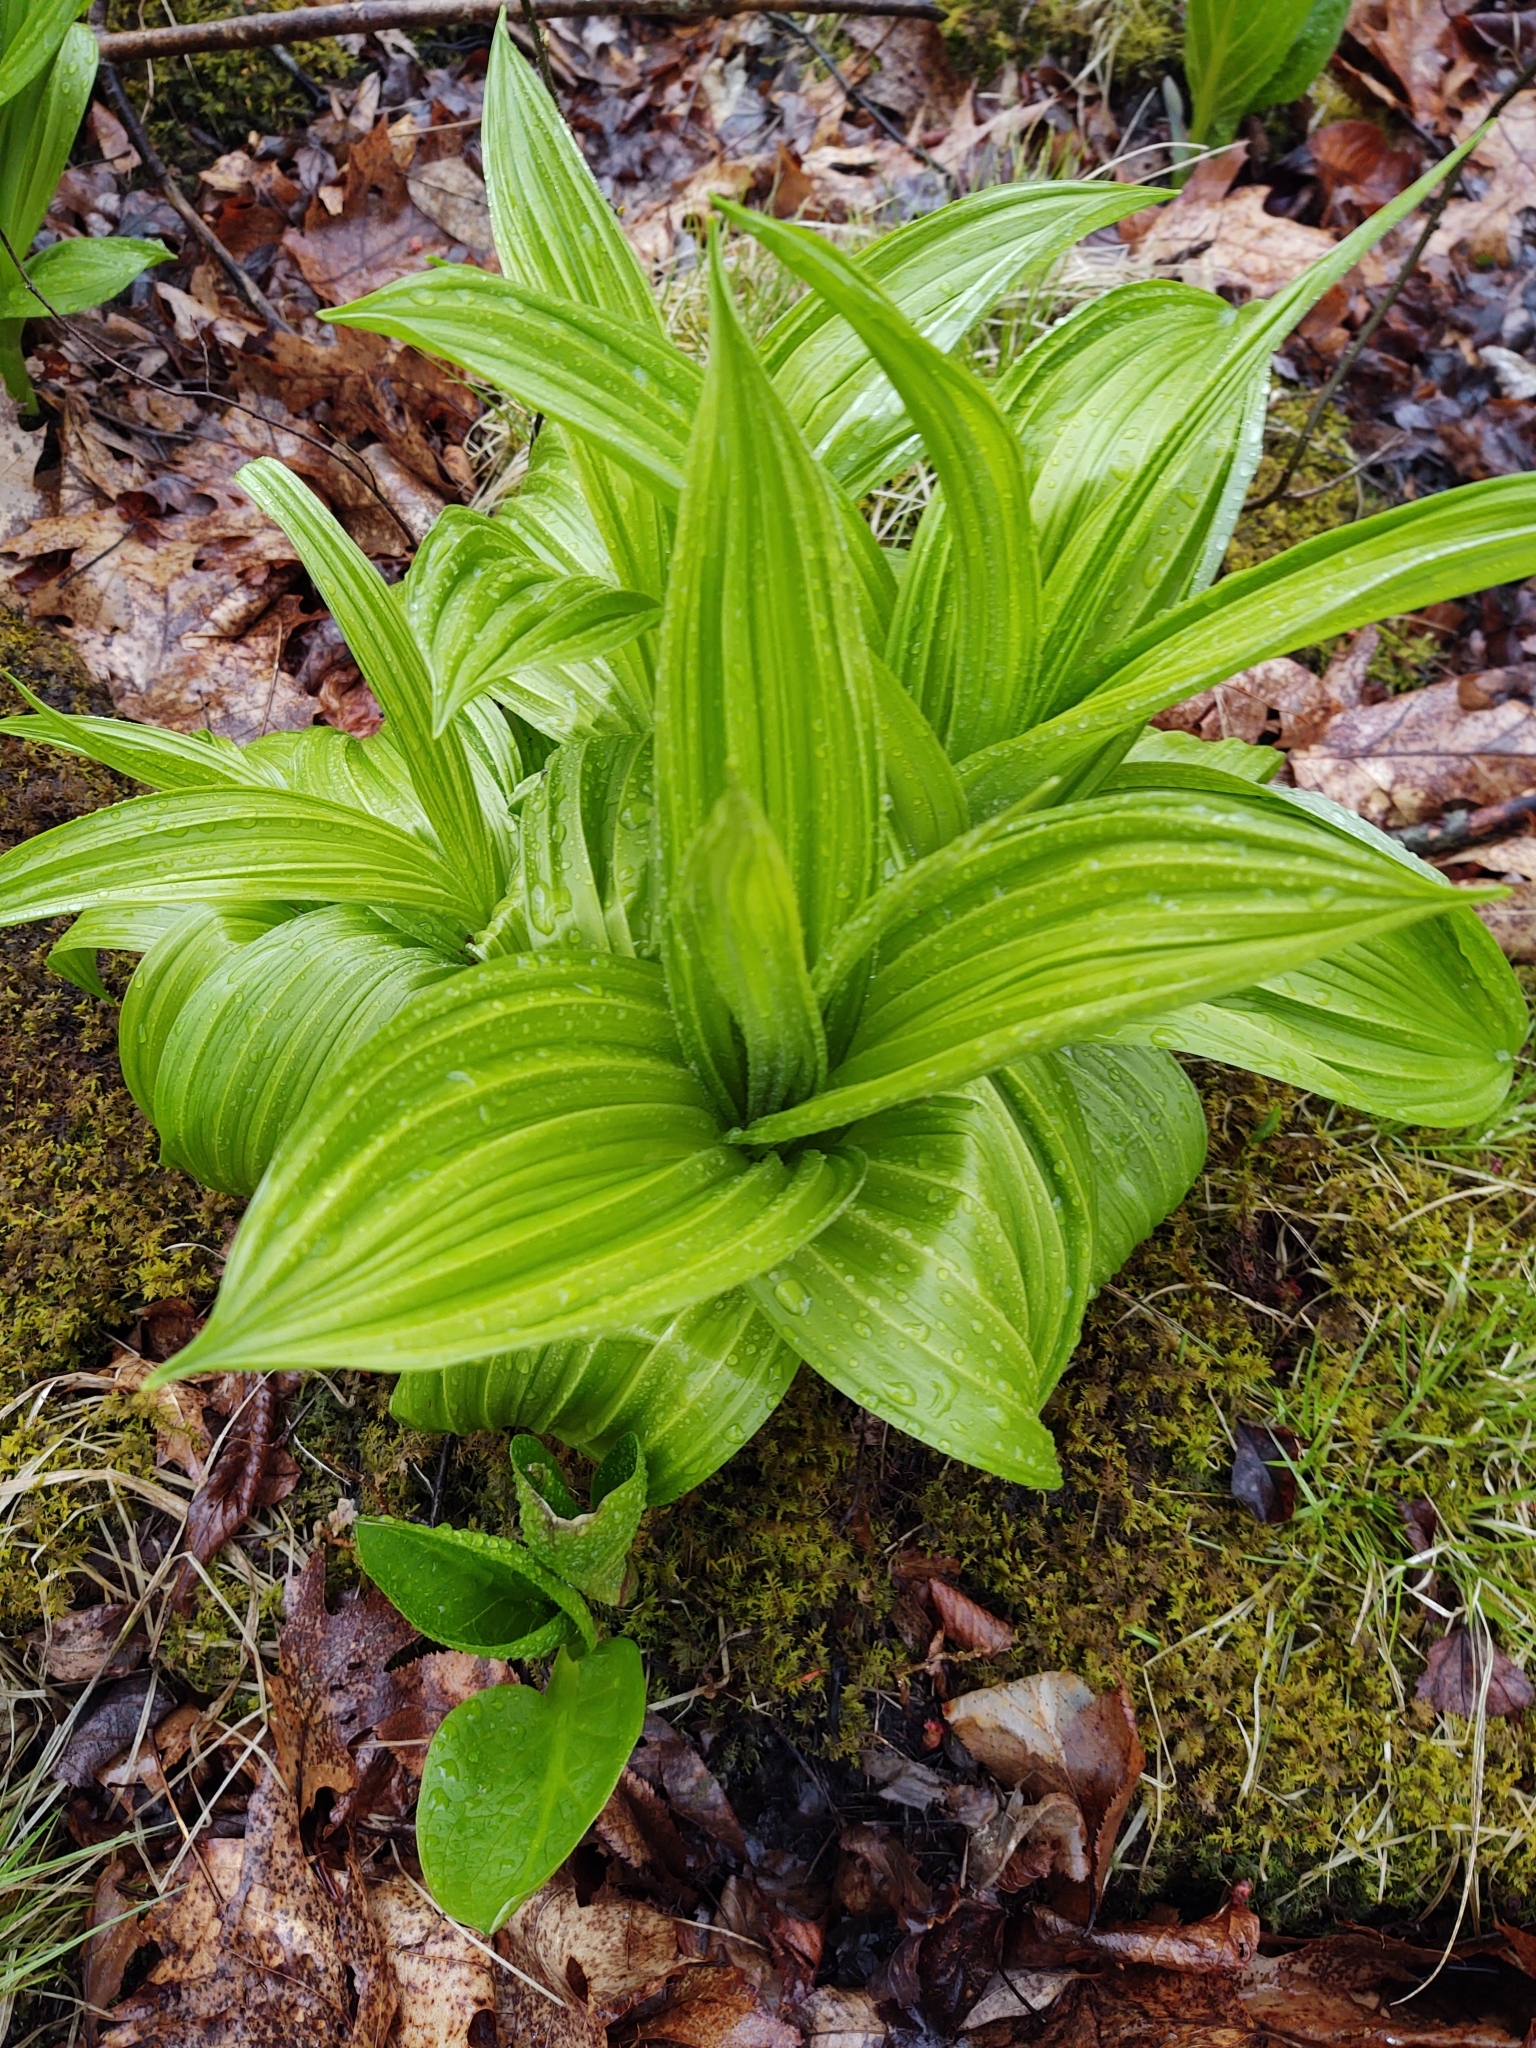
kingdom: Plantae
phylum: Tracheophyta
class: Liliopsida
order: Liliales
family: Melanthiaceae
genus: Veratrum
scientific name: Veratrum viride
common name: American false hellebore
